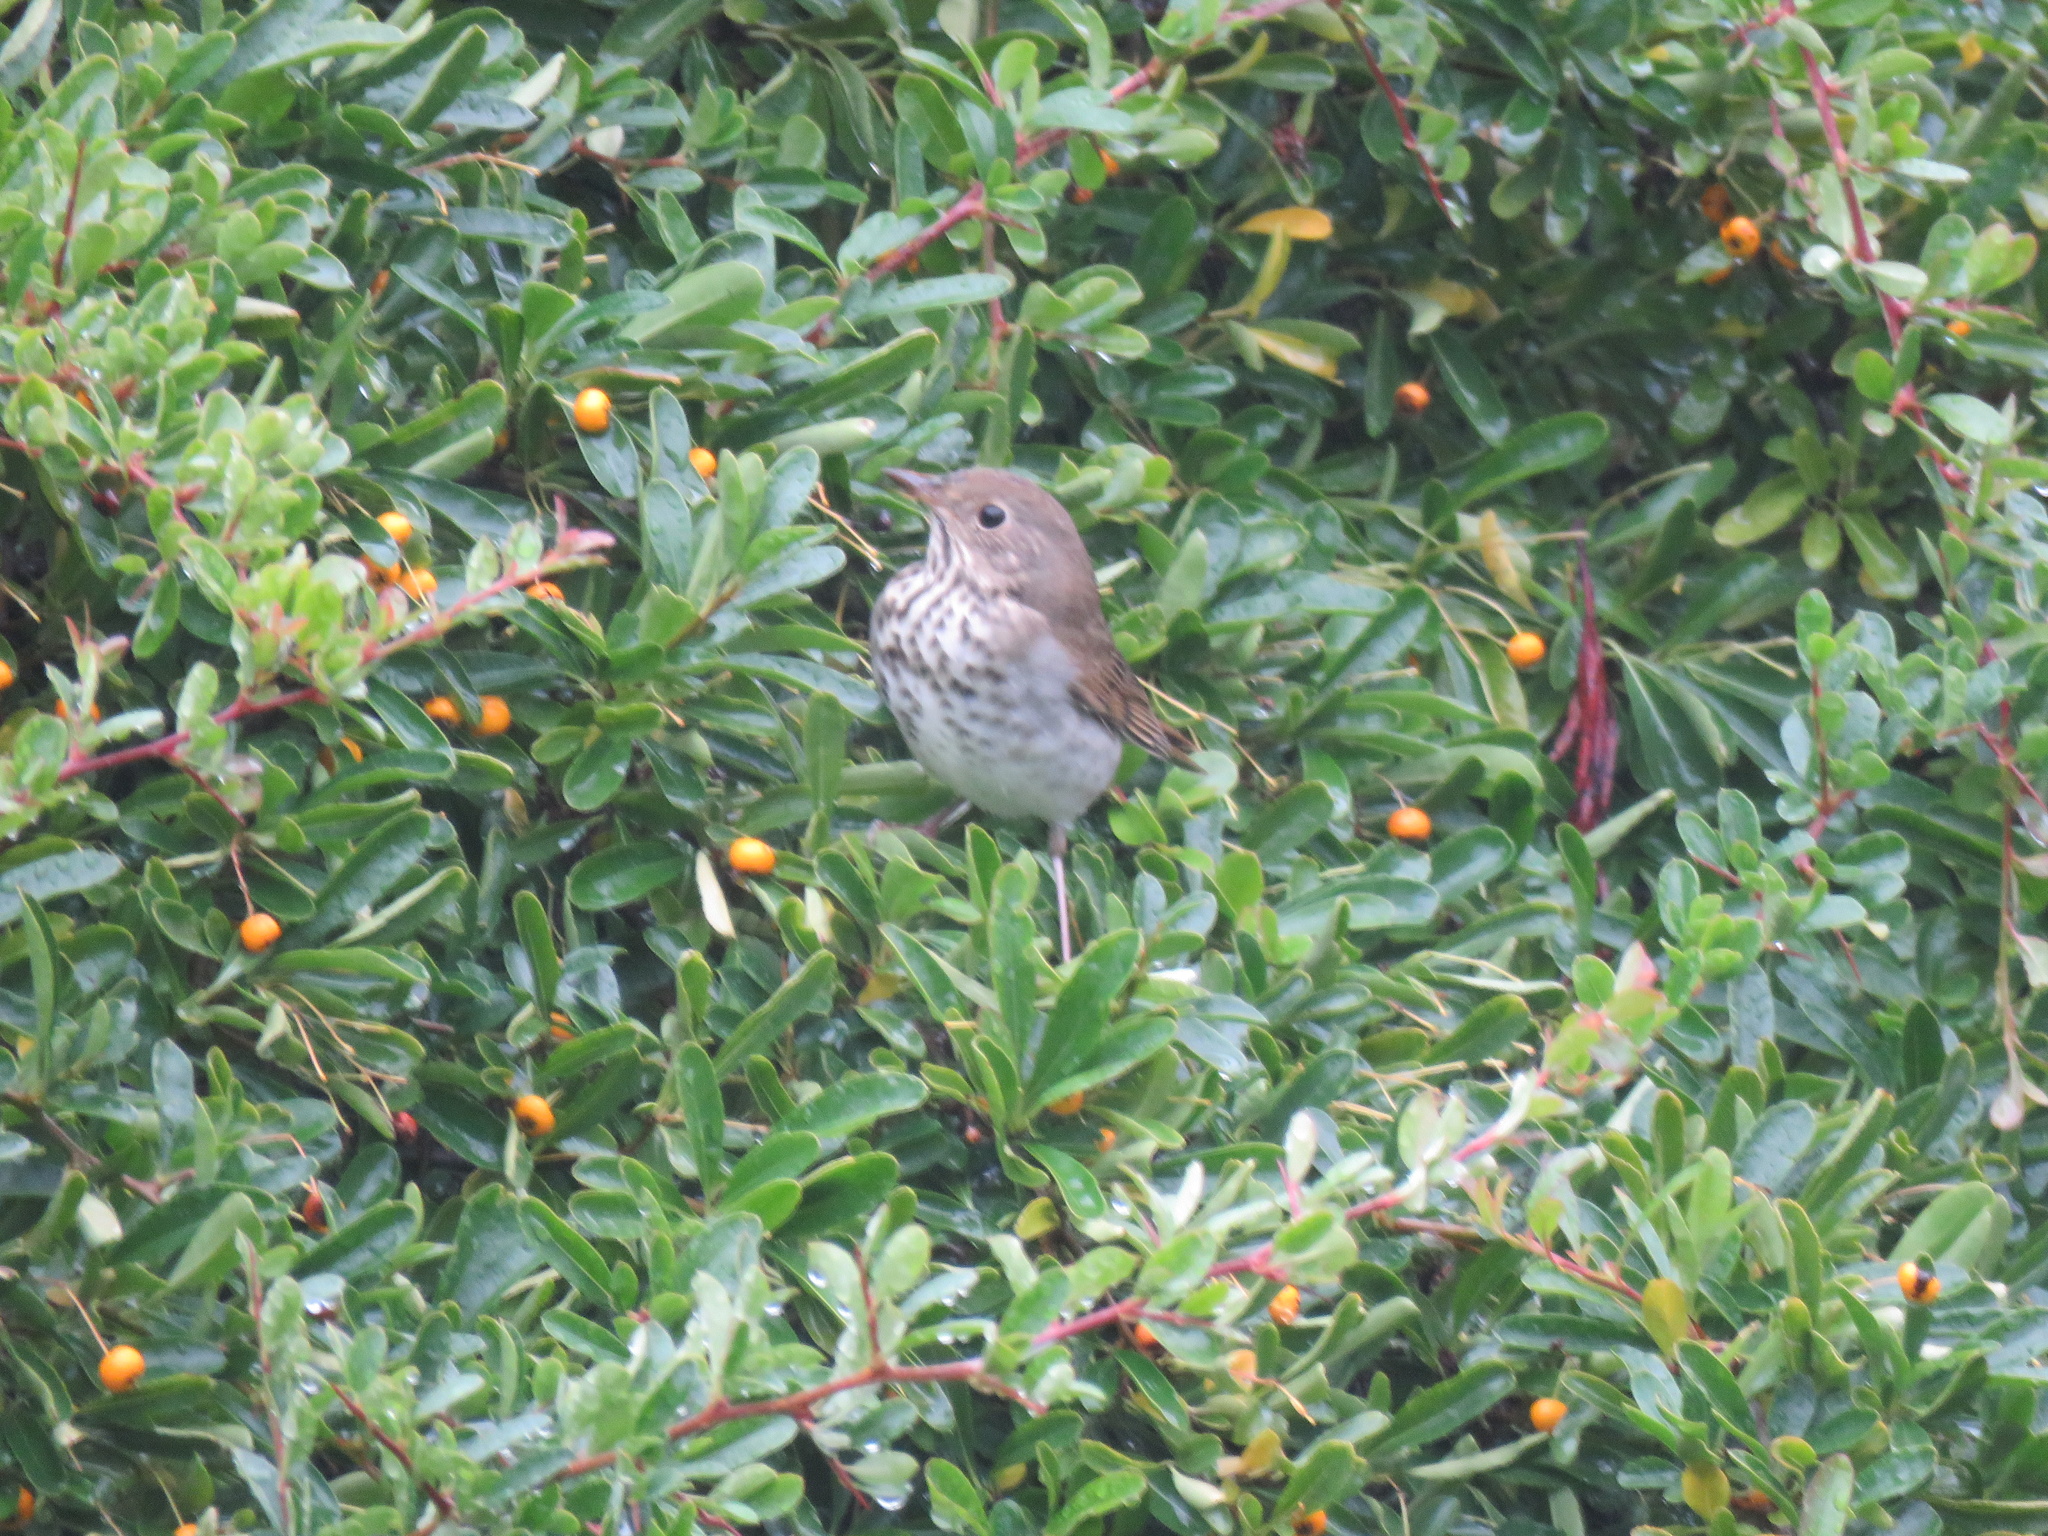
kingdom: Animalia
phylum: Chordata
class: Aves
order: Passeriformes
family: Turdidae
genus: Catharus
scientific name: Catharus guttatus
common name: Hermit thrush
